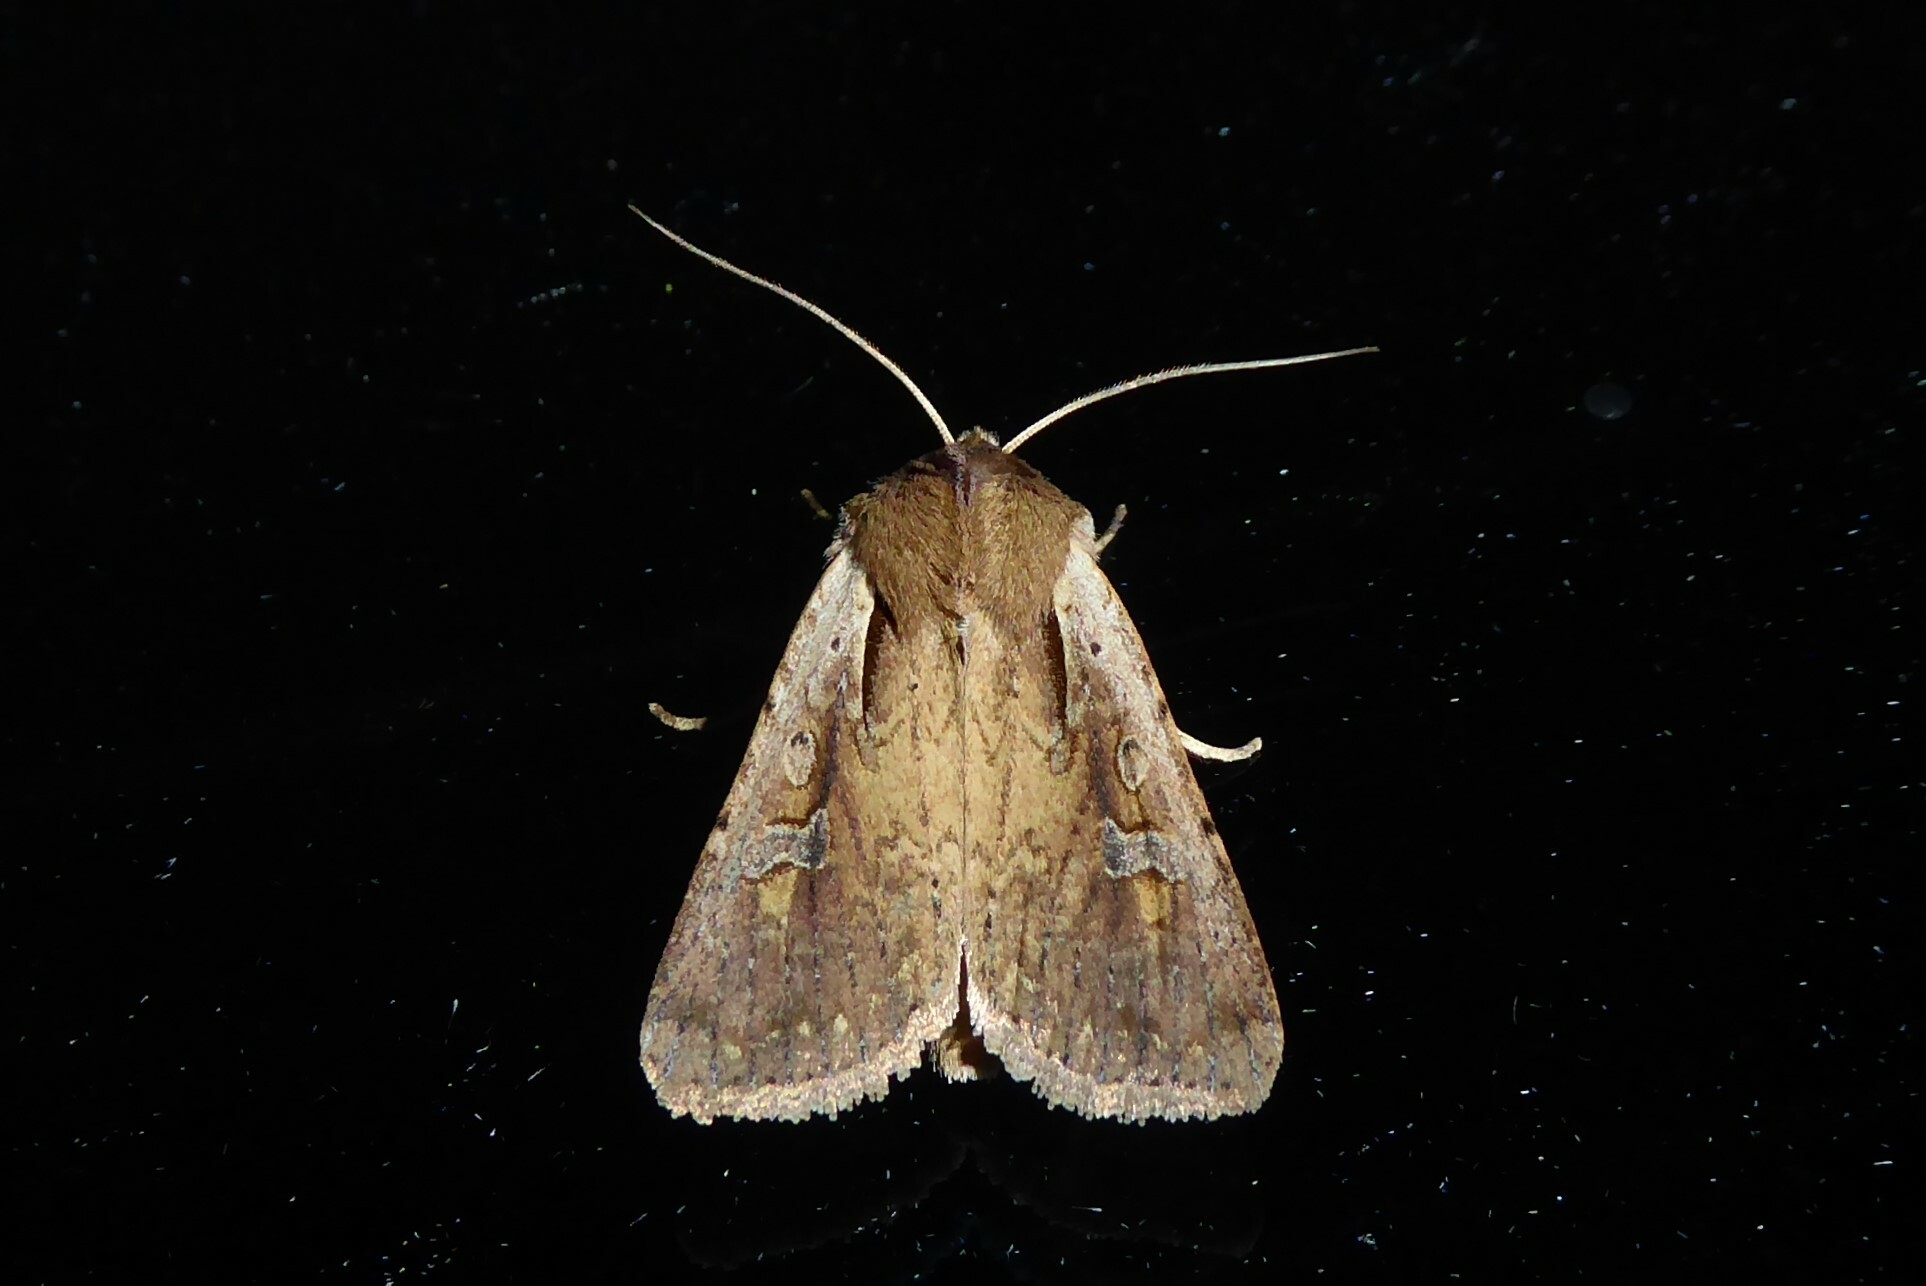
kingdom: Animalia
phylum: Arthropoda
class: Insecta
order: Lepidoptera
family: Noctuidae
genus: Ichneutica
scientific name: Ichneutica atristriga
